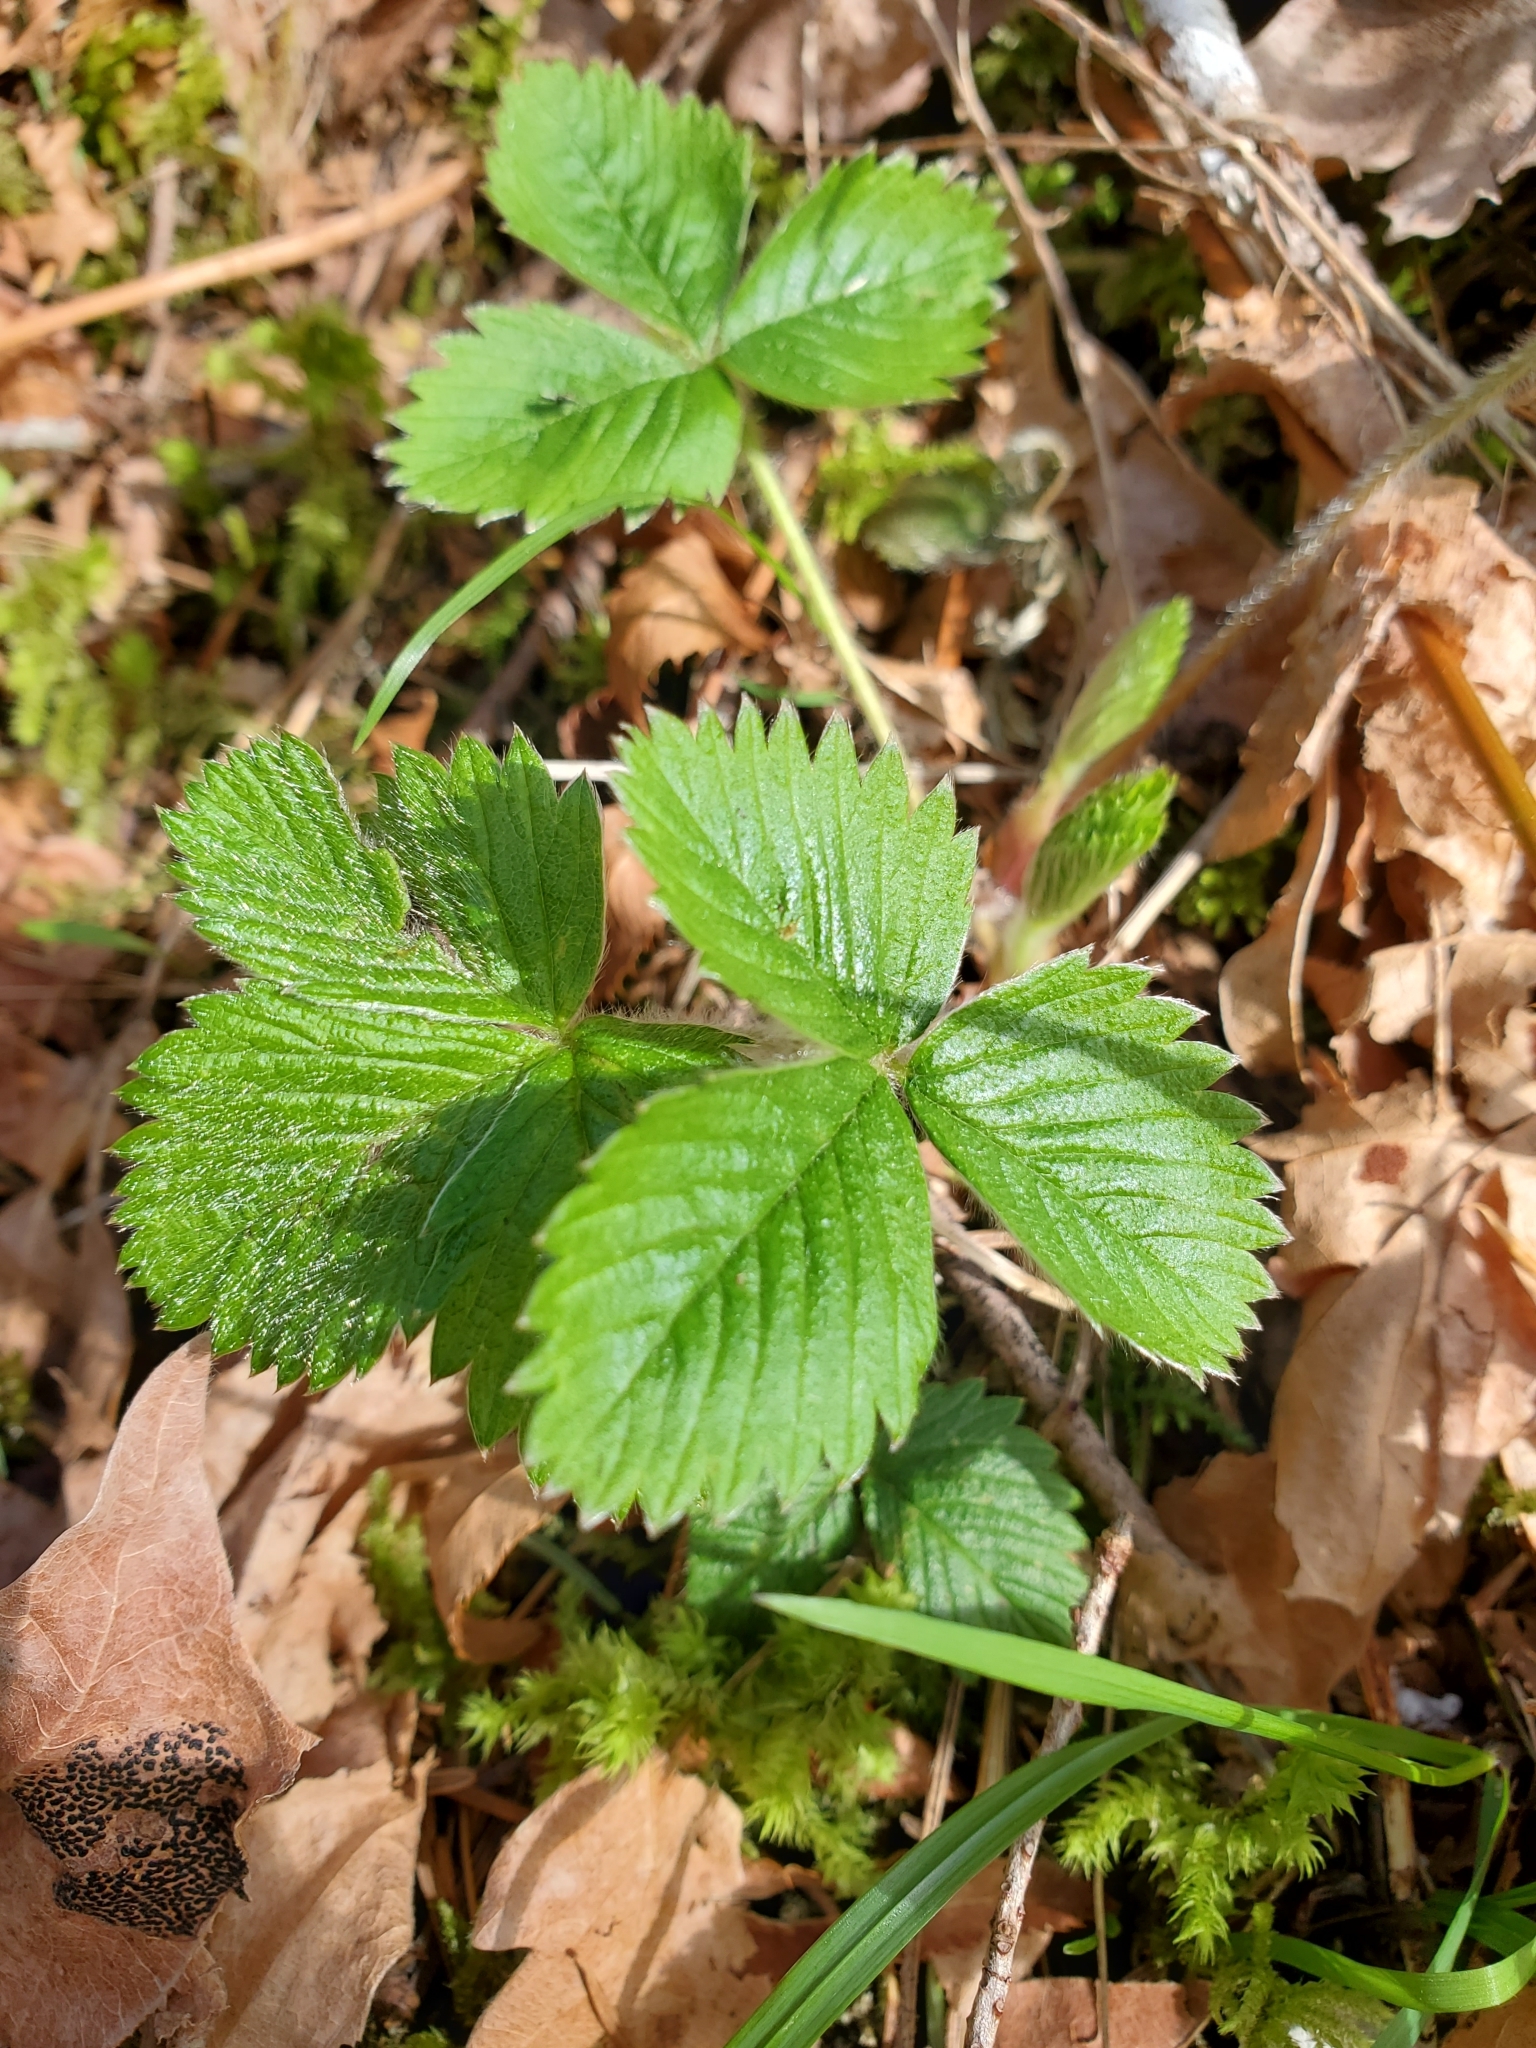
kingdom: Plantae
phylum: Tracheophyta
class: Magnoliopsida
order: Rosales
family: Rosaceae
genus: Fragaria
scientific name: Fragaria vesca
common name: Wild strawberry
